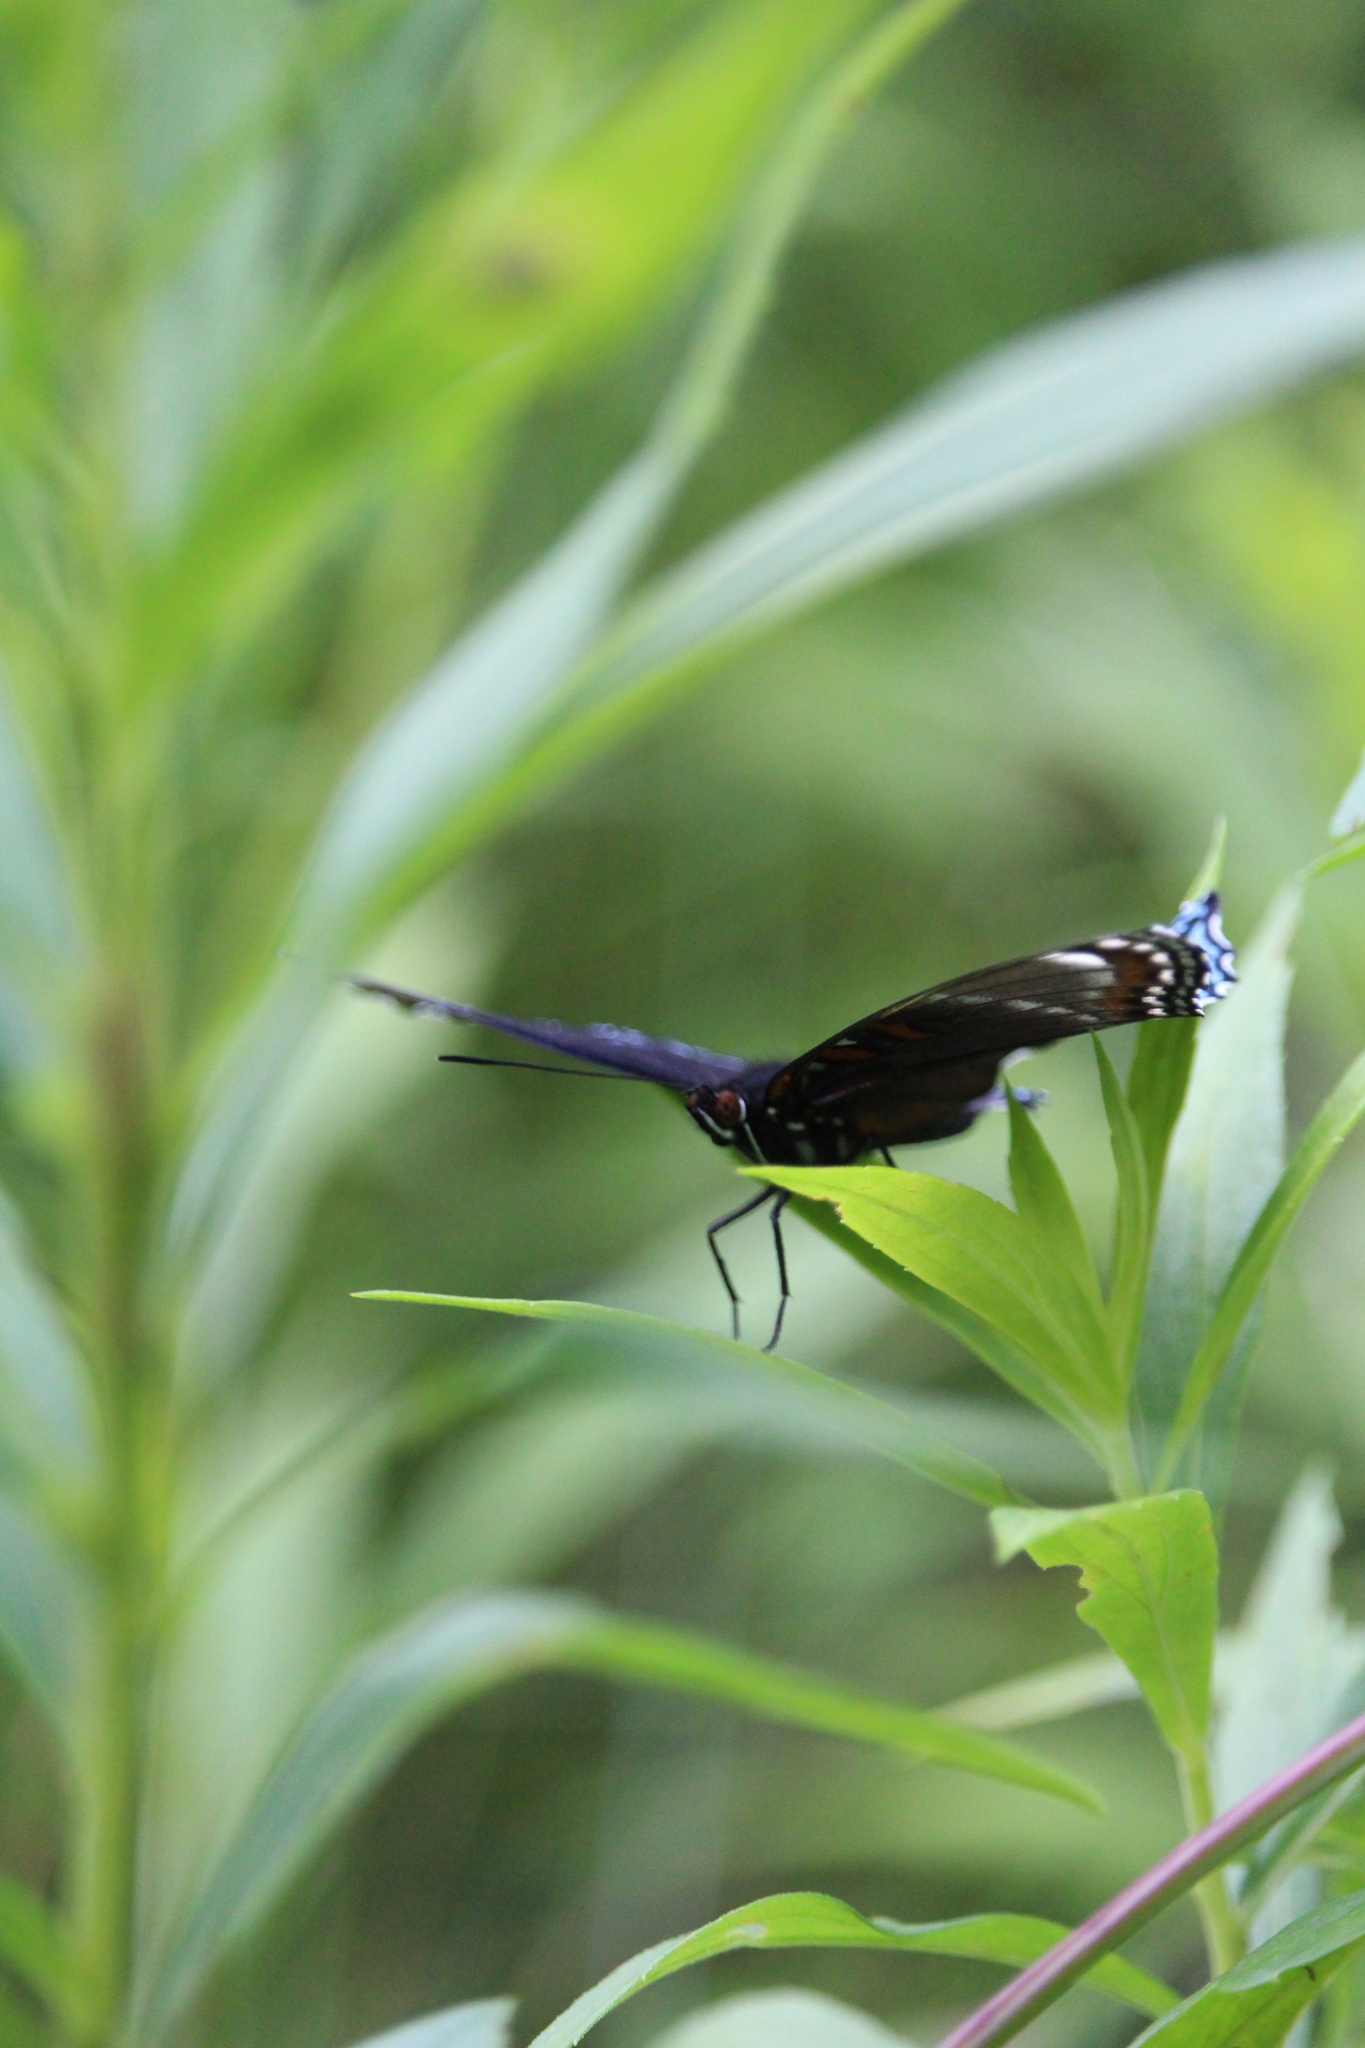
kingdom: Animalia
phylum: Arthropoda
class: Insecta
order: Lepidoptera
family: Nymphalidae
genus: Limenitis
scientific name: Limenitis arthemis
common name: Red-spotted admiral
